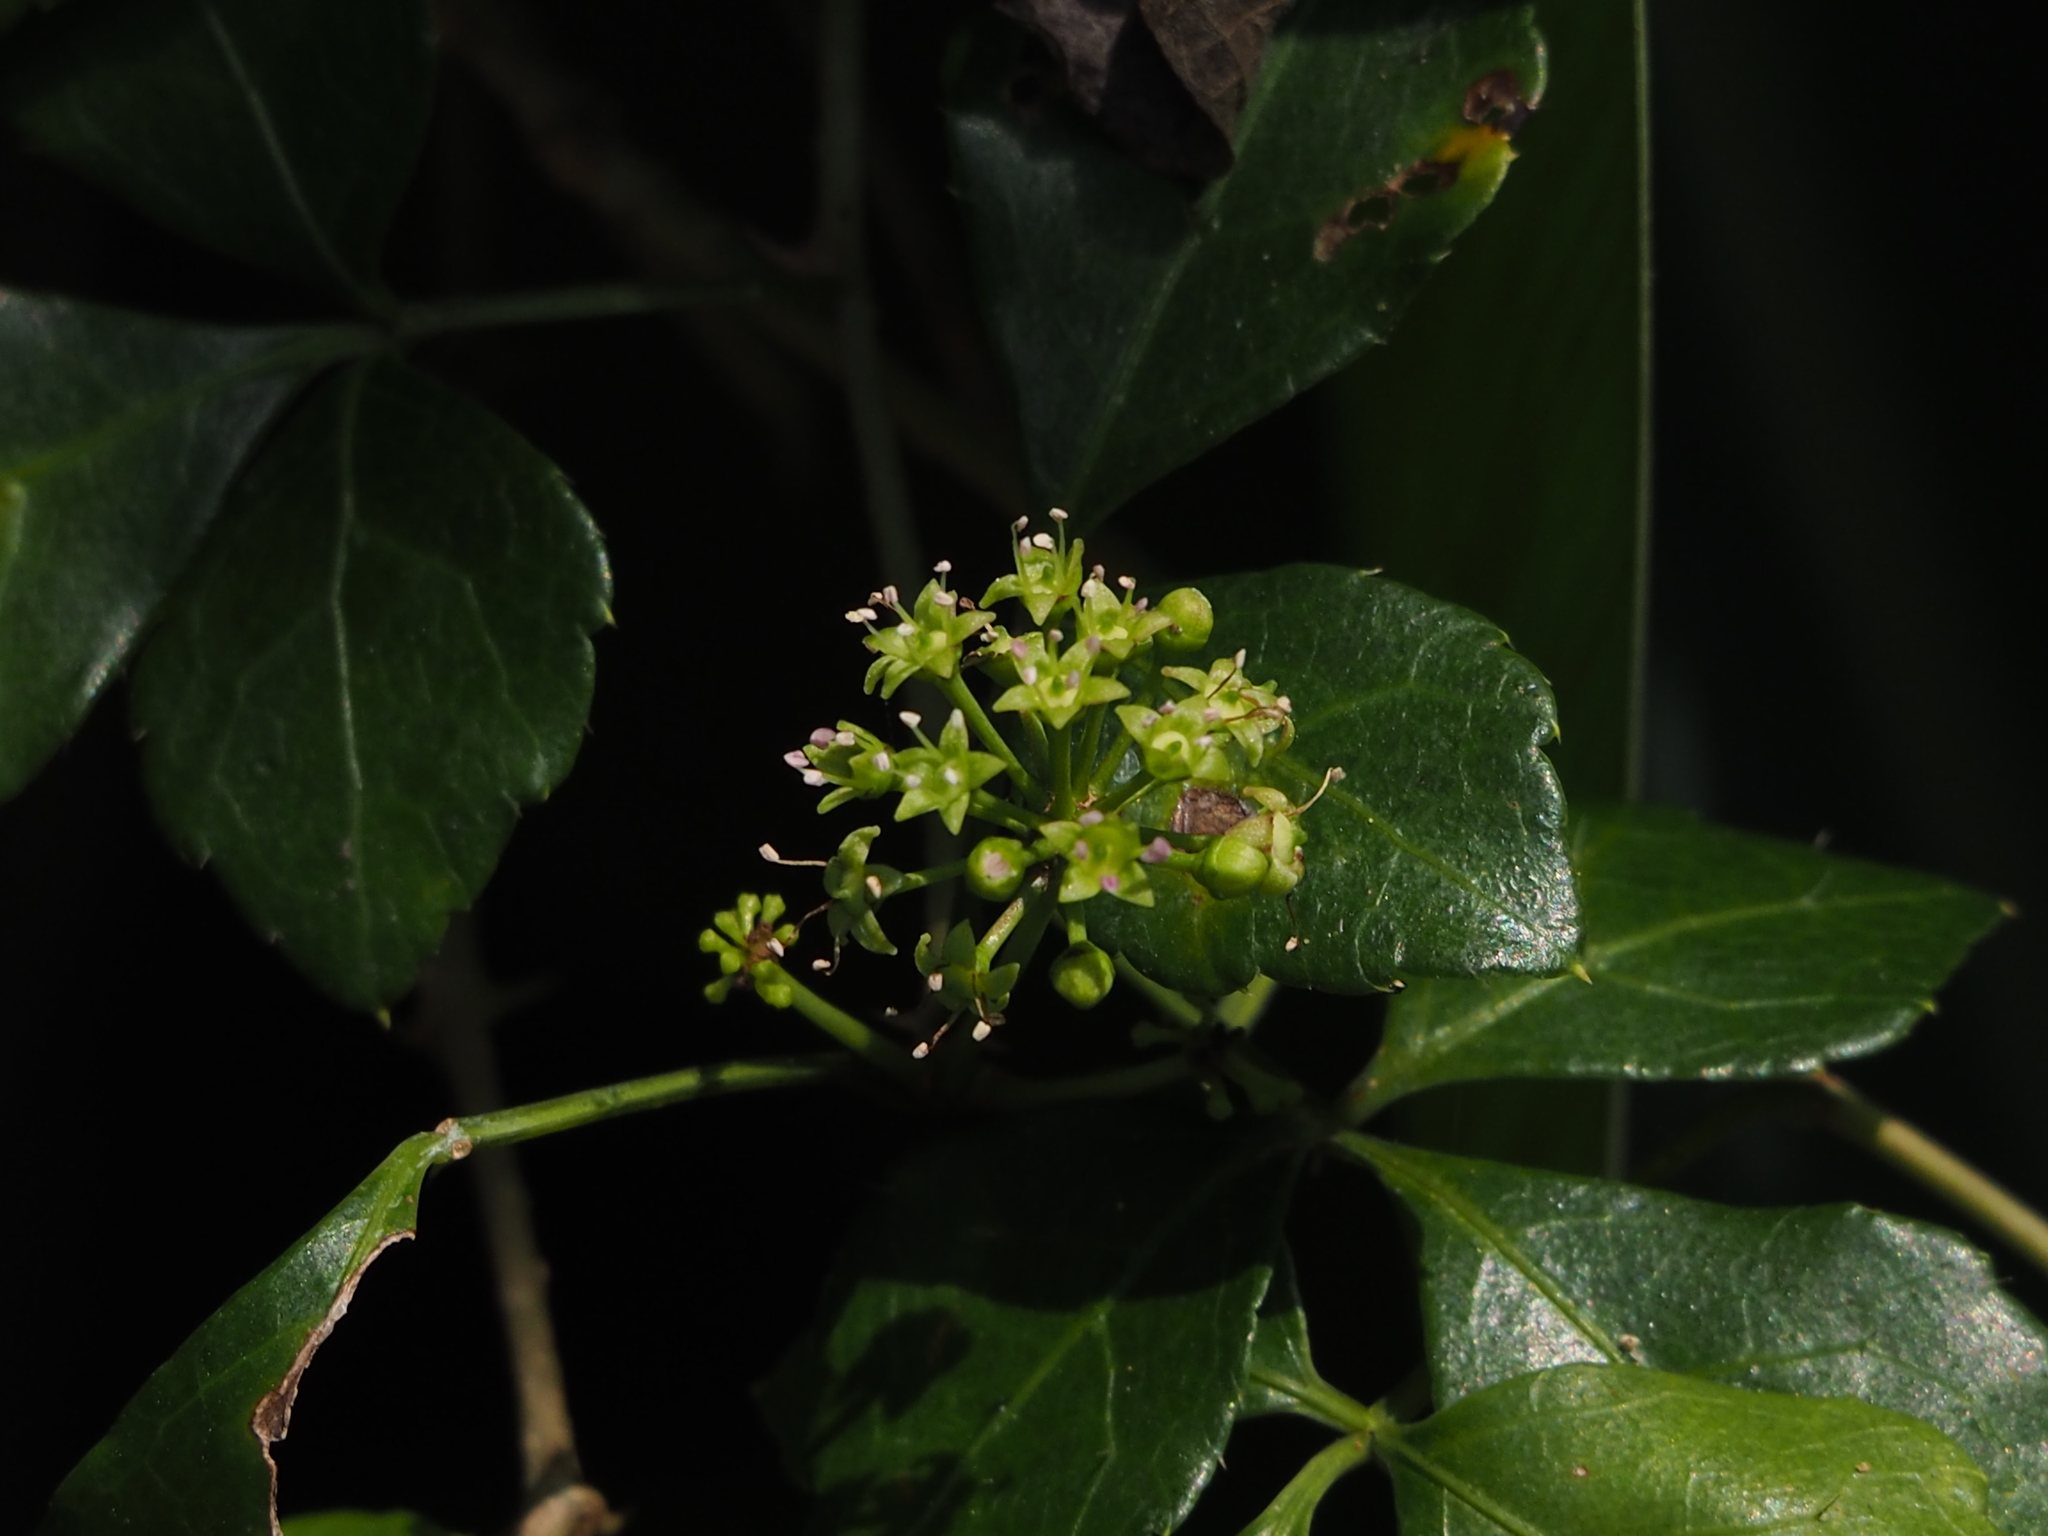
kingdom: Plantae
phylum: Tracheophyta
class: Magnoliopsida
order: Apiales
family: Araliaceae
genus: Eleutherococcus
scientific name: Eleutherococcus trifoliatus
